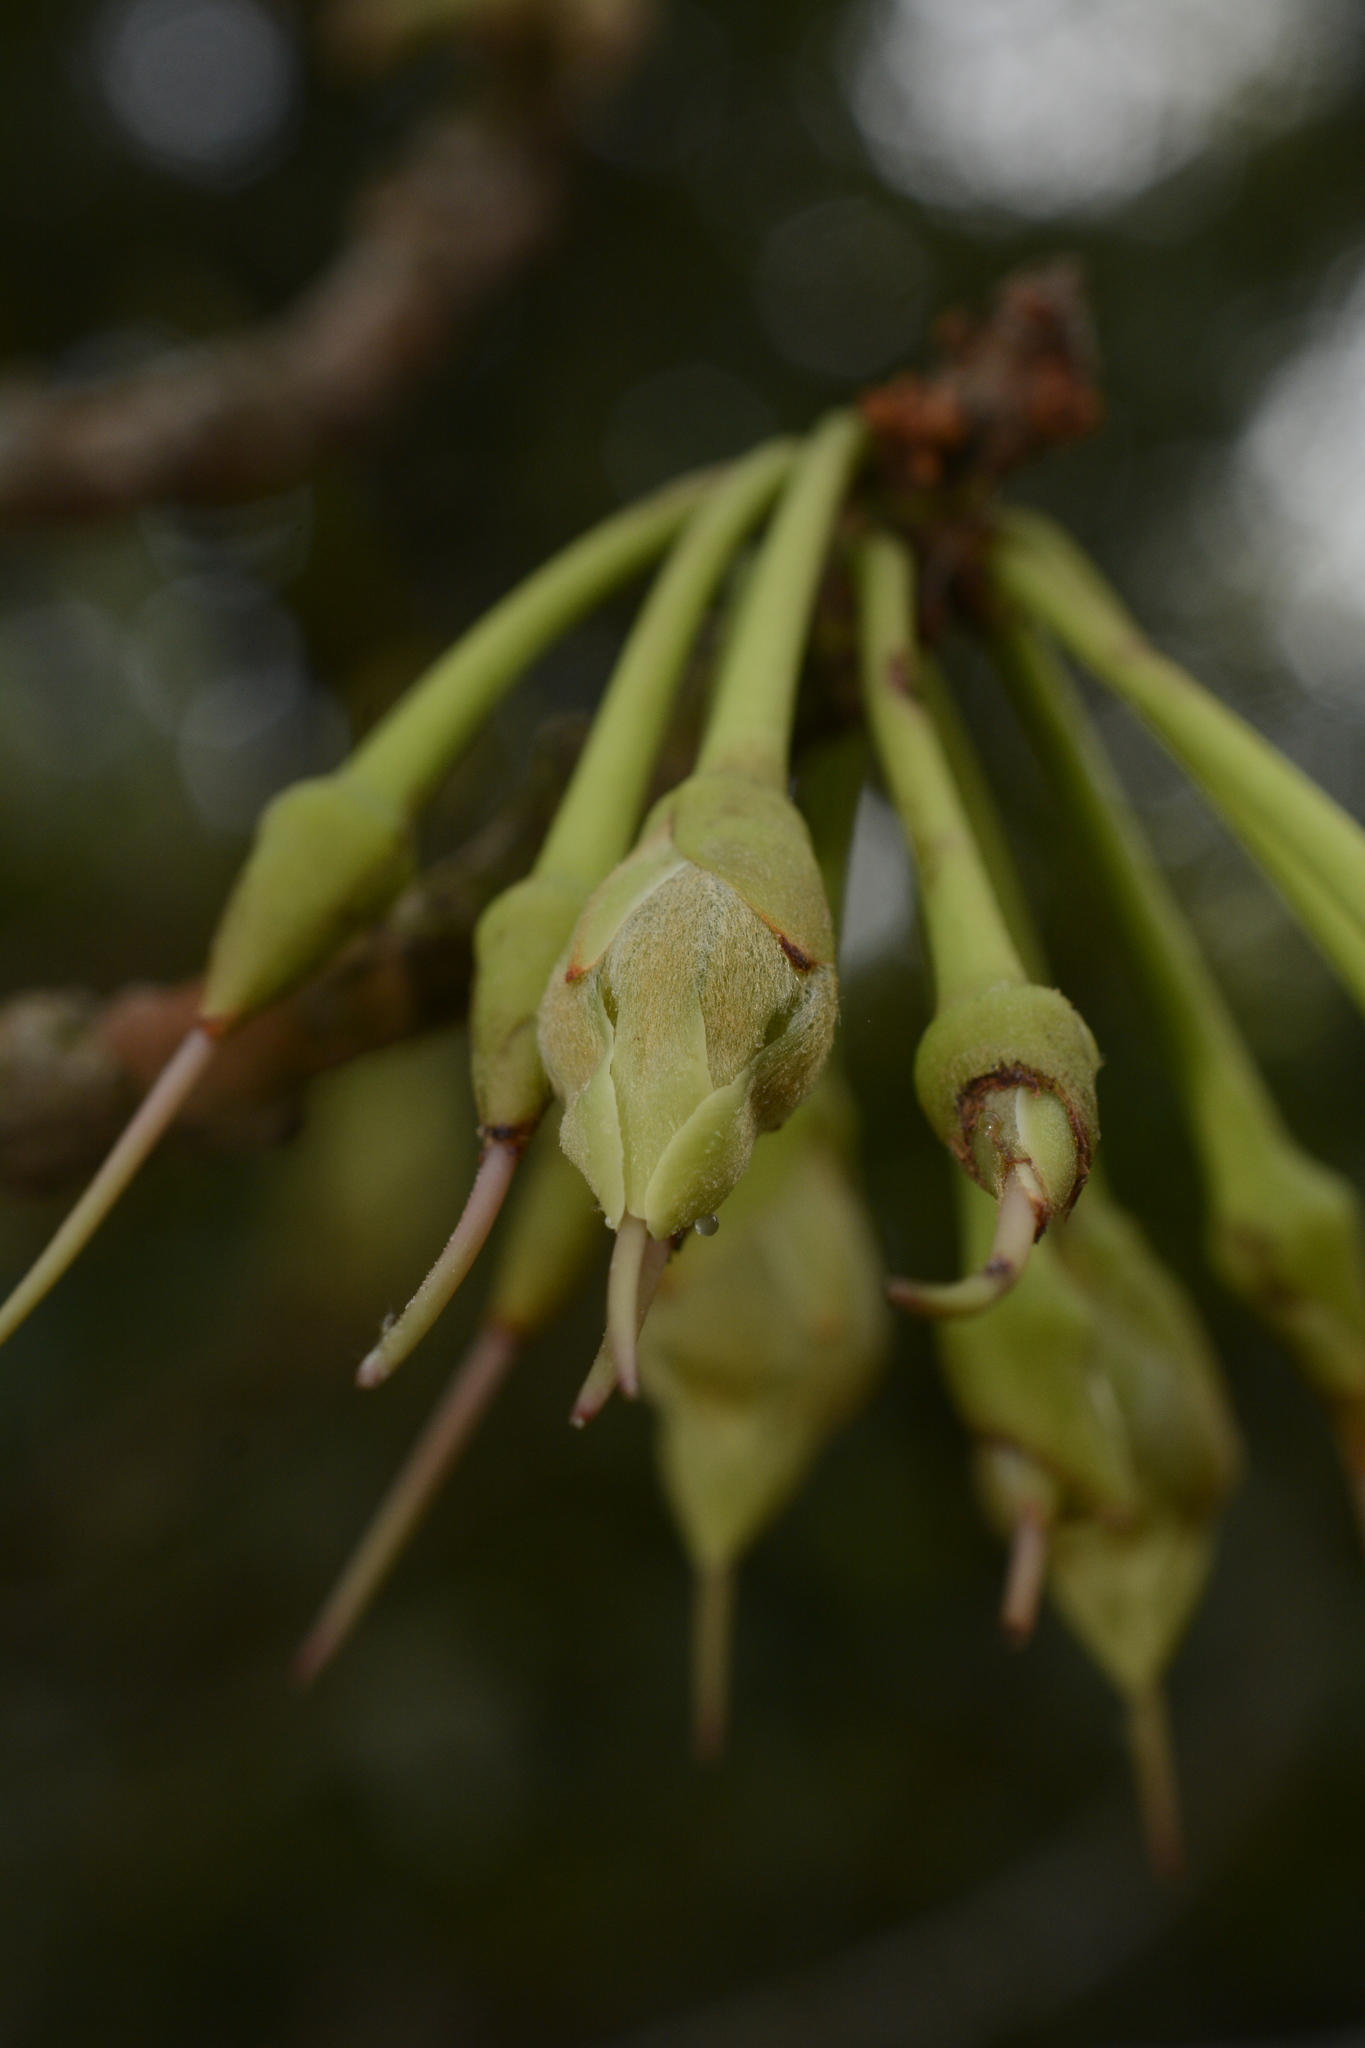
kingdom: Plantae
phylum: Tracheophyta
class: Magnoliopsida
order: Ericales
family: Sapotaceae
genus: Madhuca
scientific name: Madhuca neriifolia
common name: Illipe butter tree
